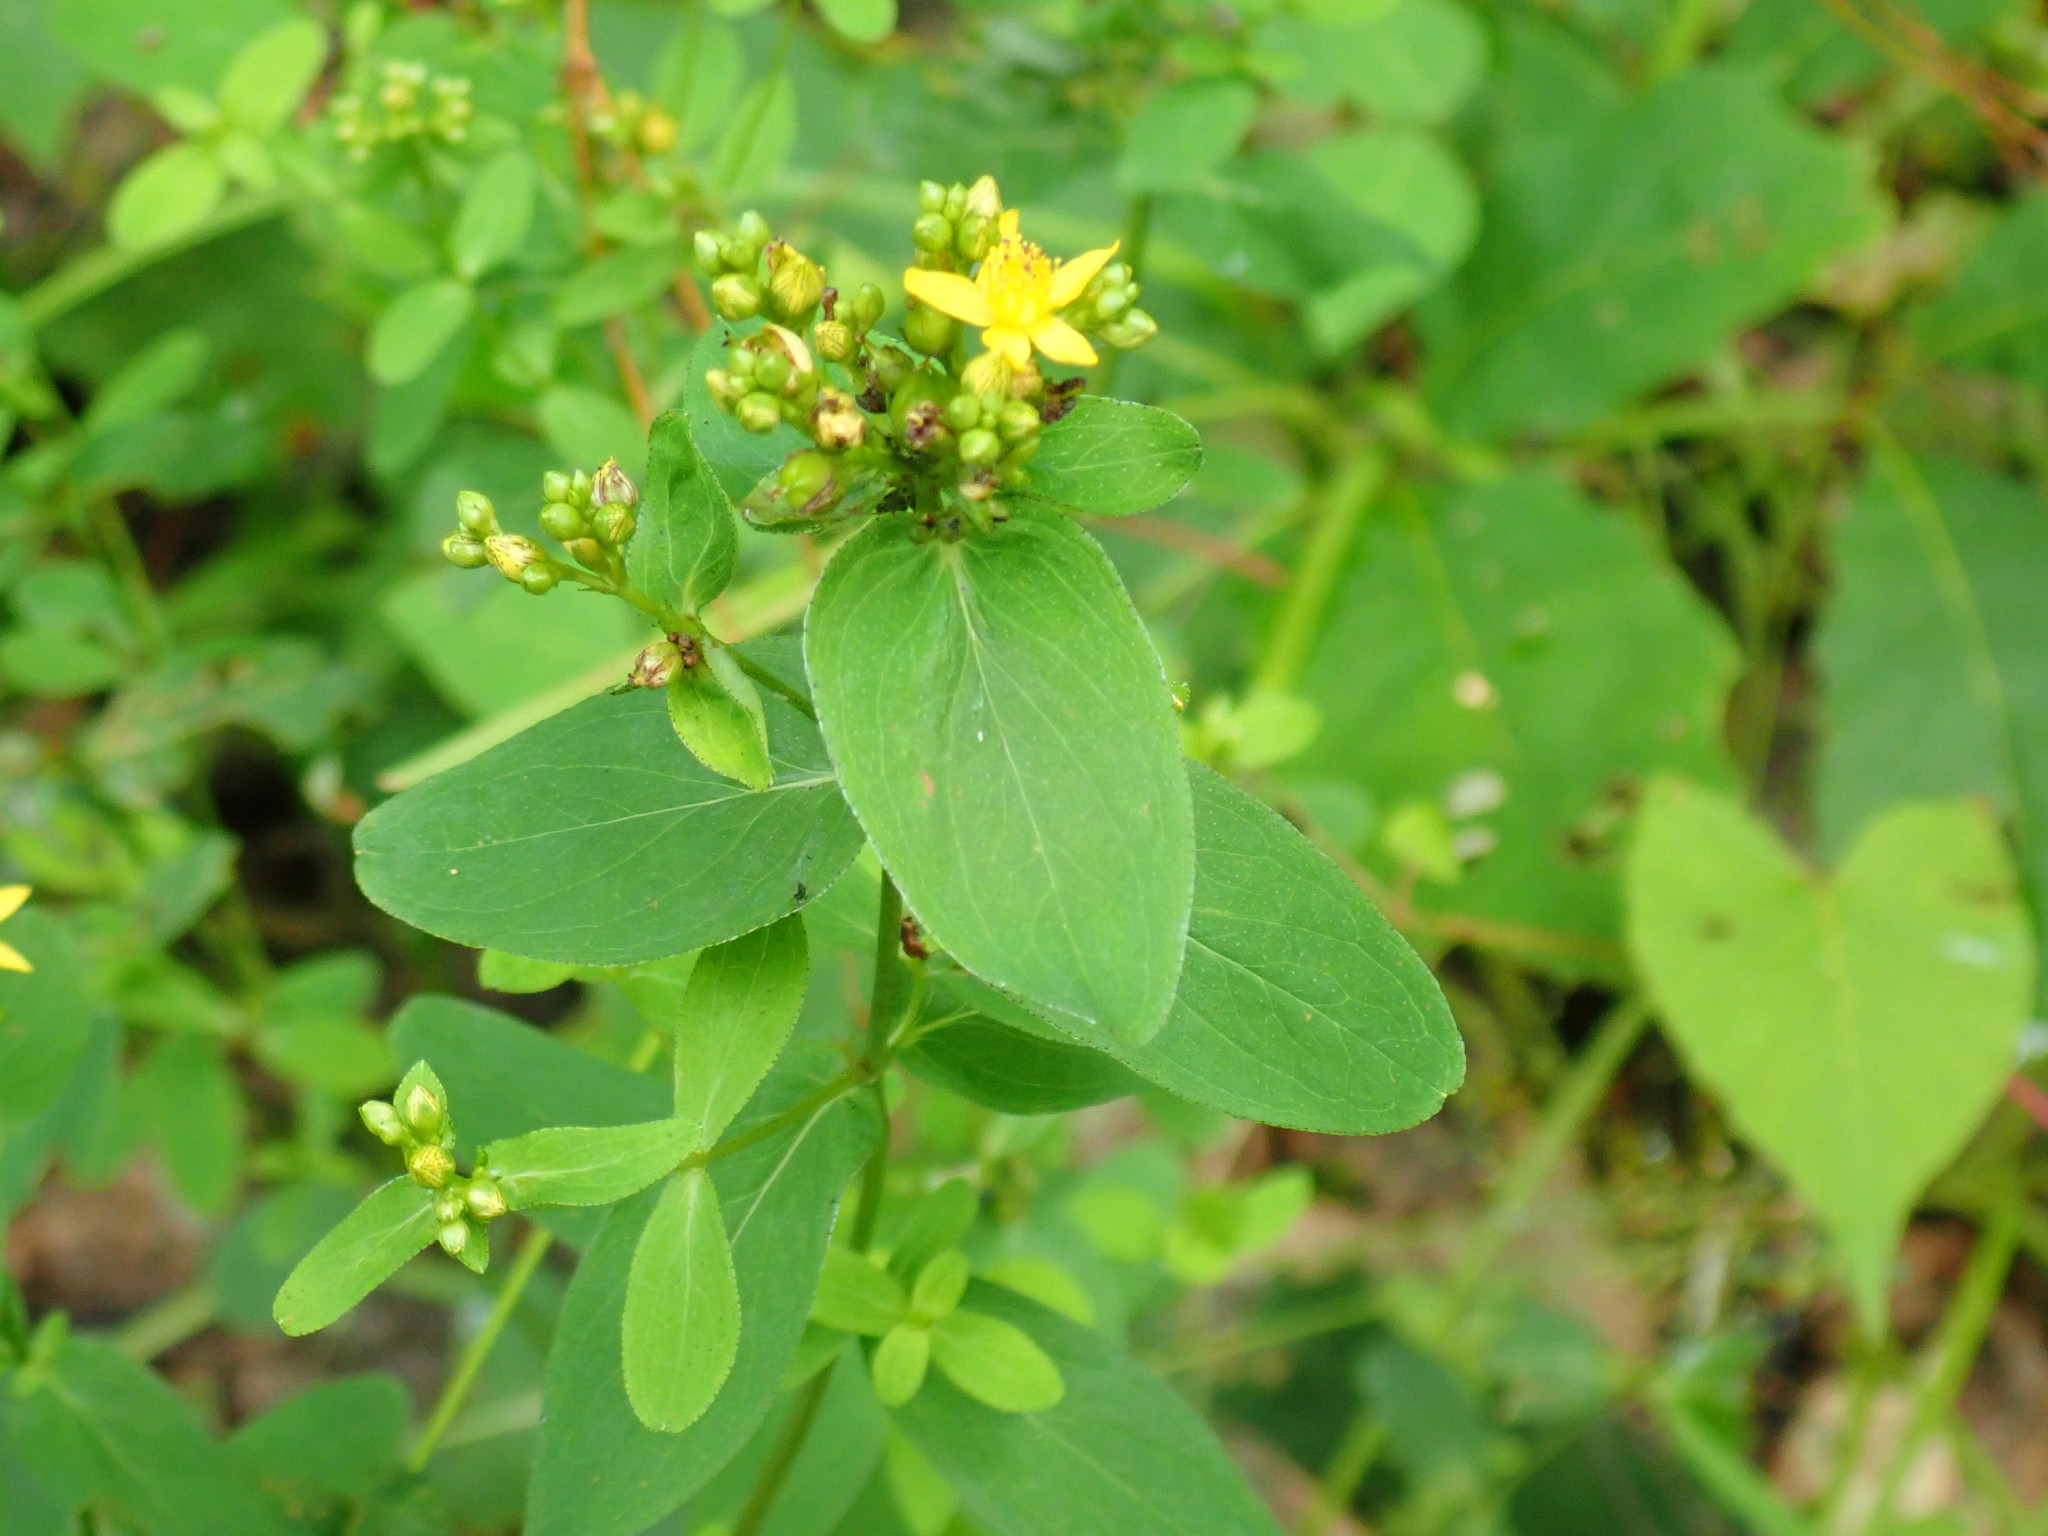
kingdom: Plantae
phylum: Tracheophyta
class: Magnoliopsida
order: Malpighiales
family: Hypericaceae
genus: Hypericum
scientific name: Hypericum punctatum
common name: Spotted st. john's-wort
